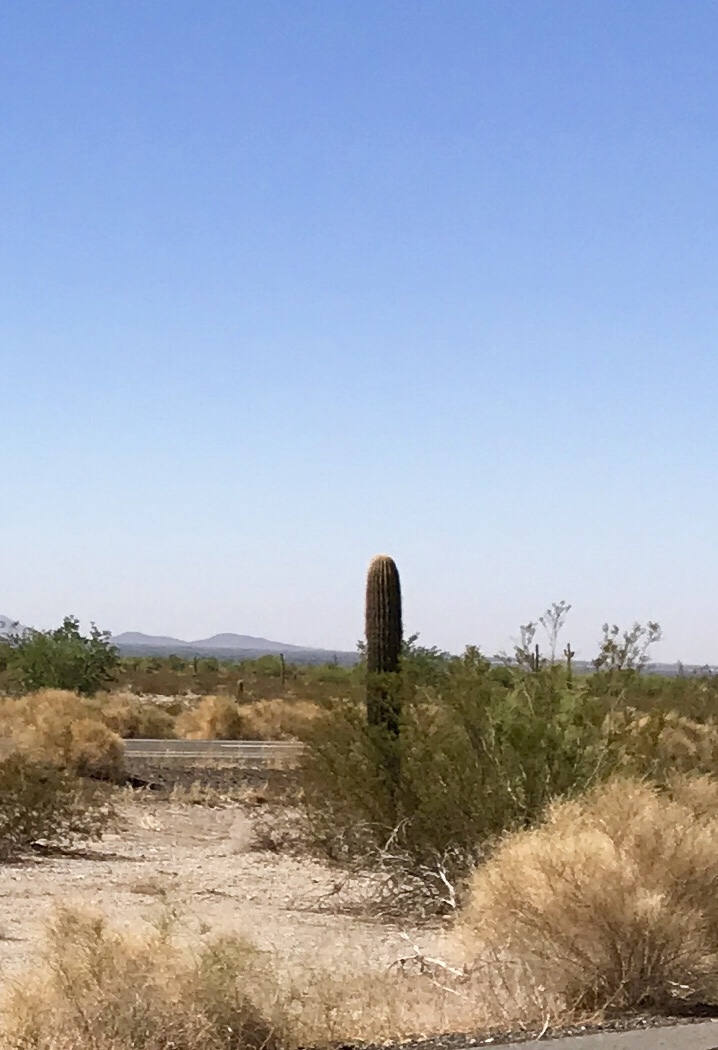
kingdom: Plantae
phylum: Tracheophyta
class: Magnoliopsida
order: Caryophyllales
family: Cactaceae
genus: Carnegiea
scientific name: Carnegiea gigantea
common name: Saguaro
